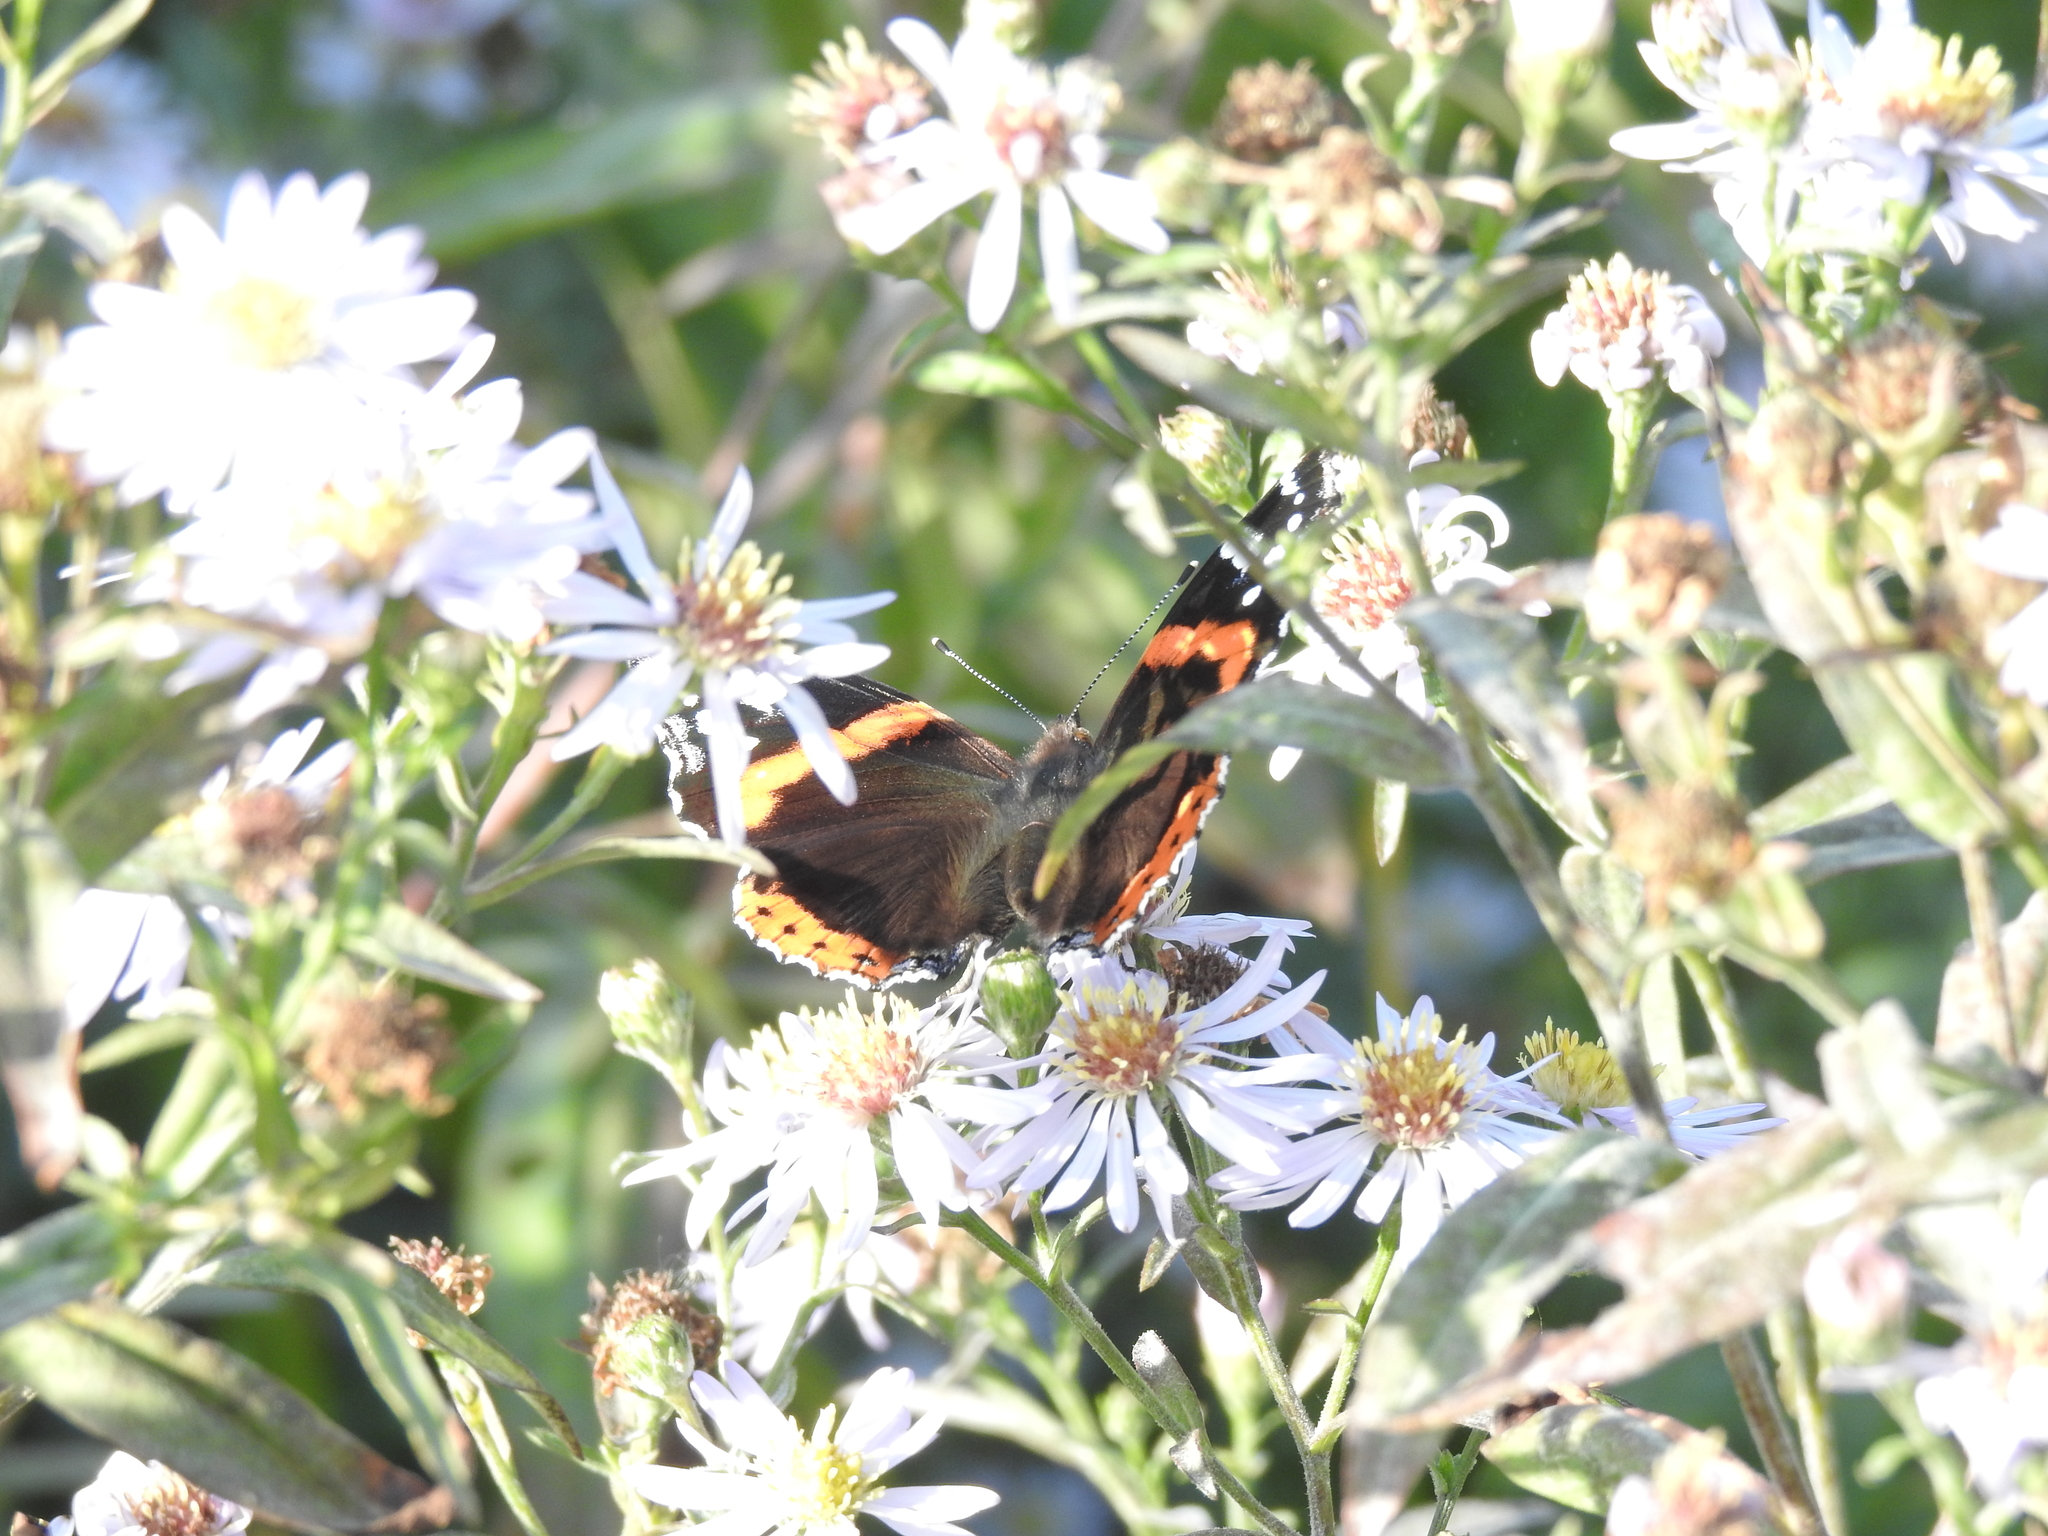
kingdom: Animalia
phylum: Arthropoda
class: Insecta
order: Lepidoptera
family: Nymphalidae
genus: Vanessa
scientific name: Vanessa atalanta
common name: Red admiral
